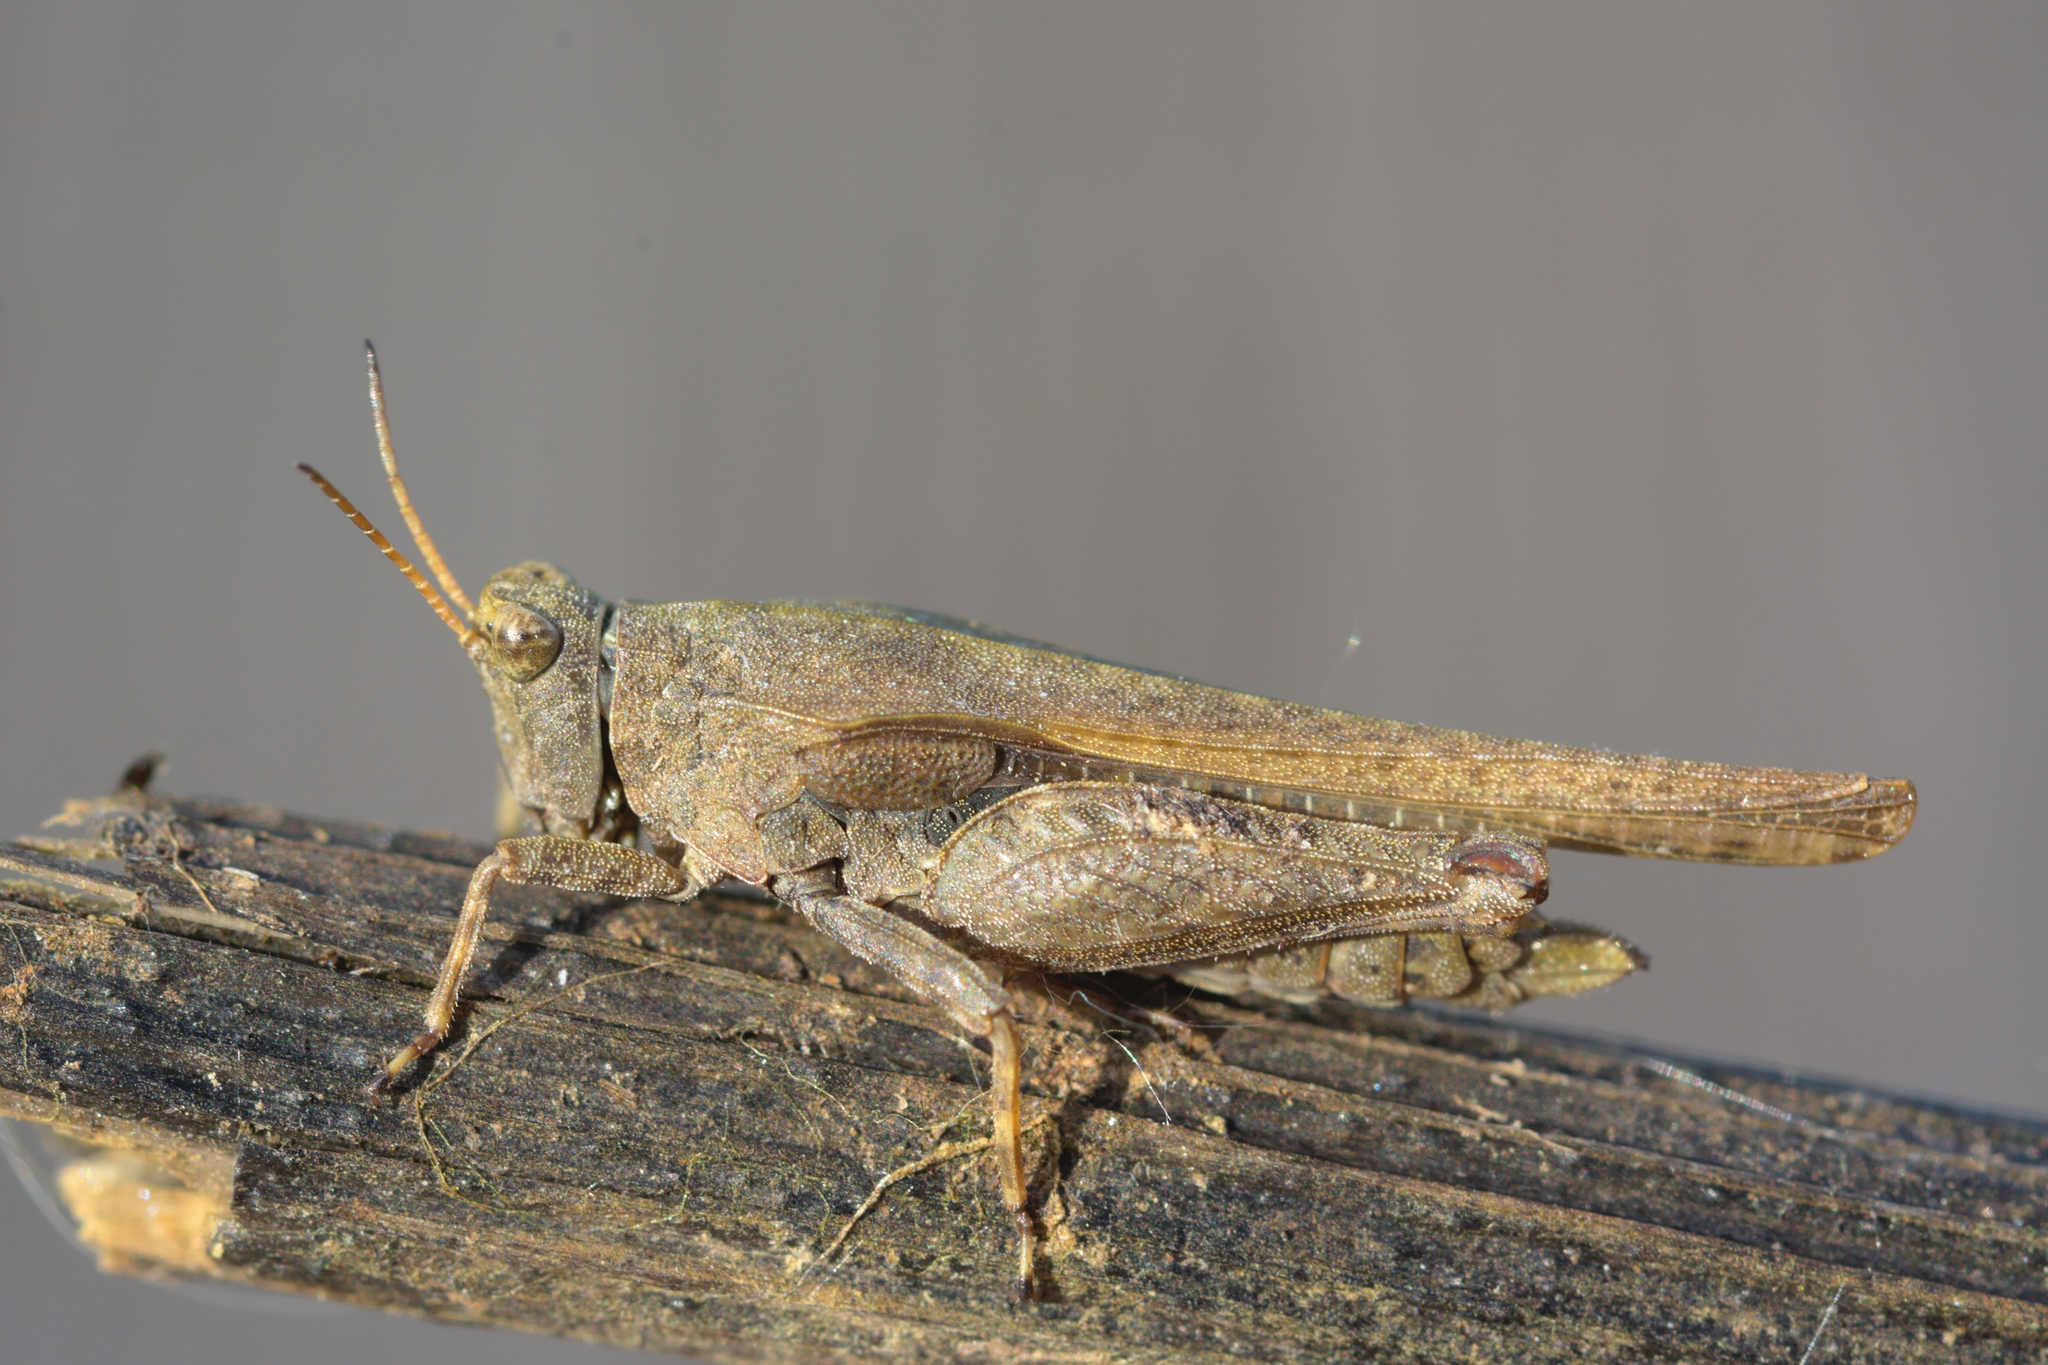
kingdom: Animalia
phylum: Arthropoda
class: Insecta
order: Orthoptera
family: Tetrigidae
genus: Tetrix
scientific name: Tetrix subulata
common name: Slender ground-hopper
